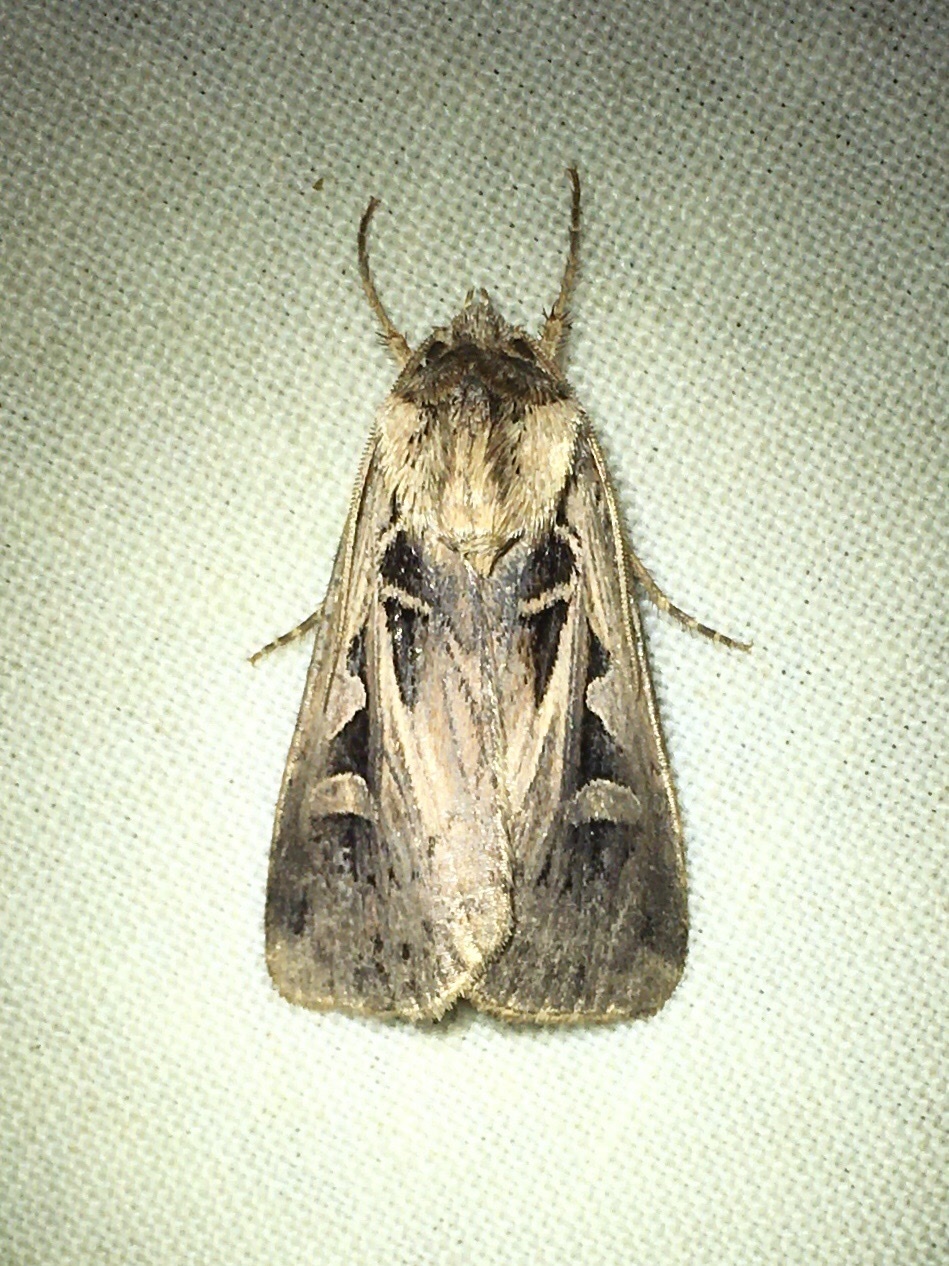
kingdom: Animalia
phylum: Arthropoda
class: Insecta
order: Lepidoptera
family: Noctuidae
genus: Feltia
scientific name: Feltia
